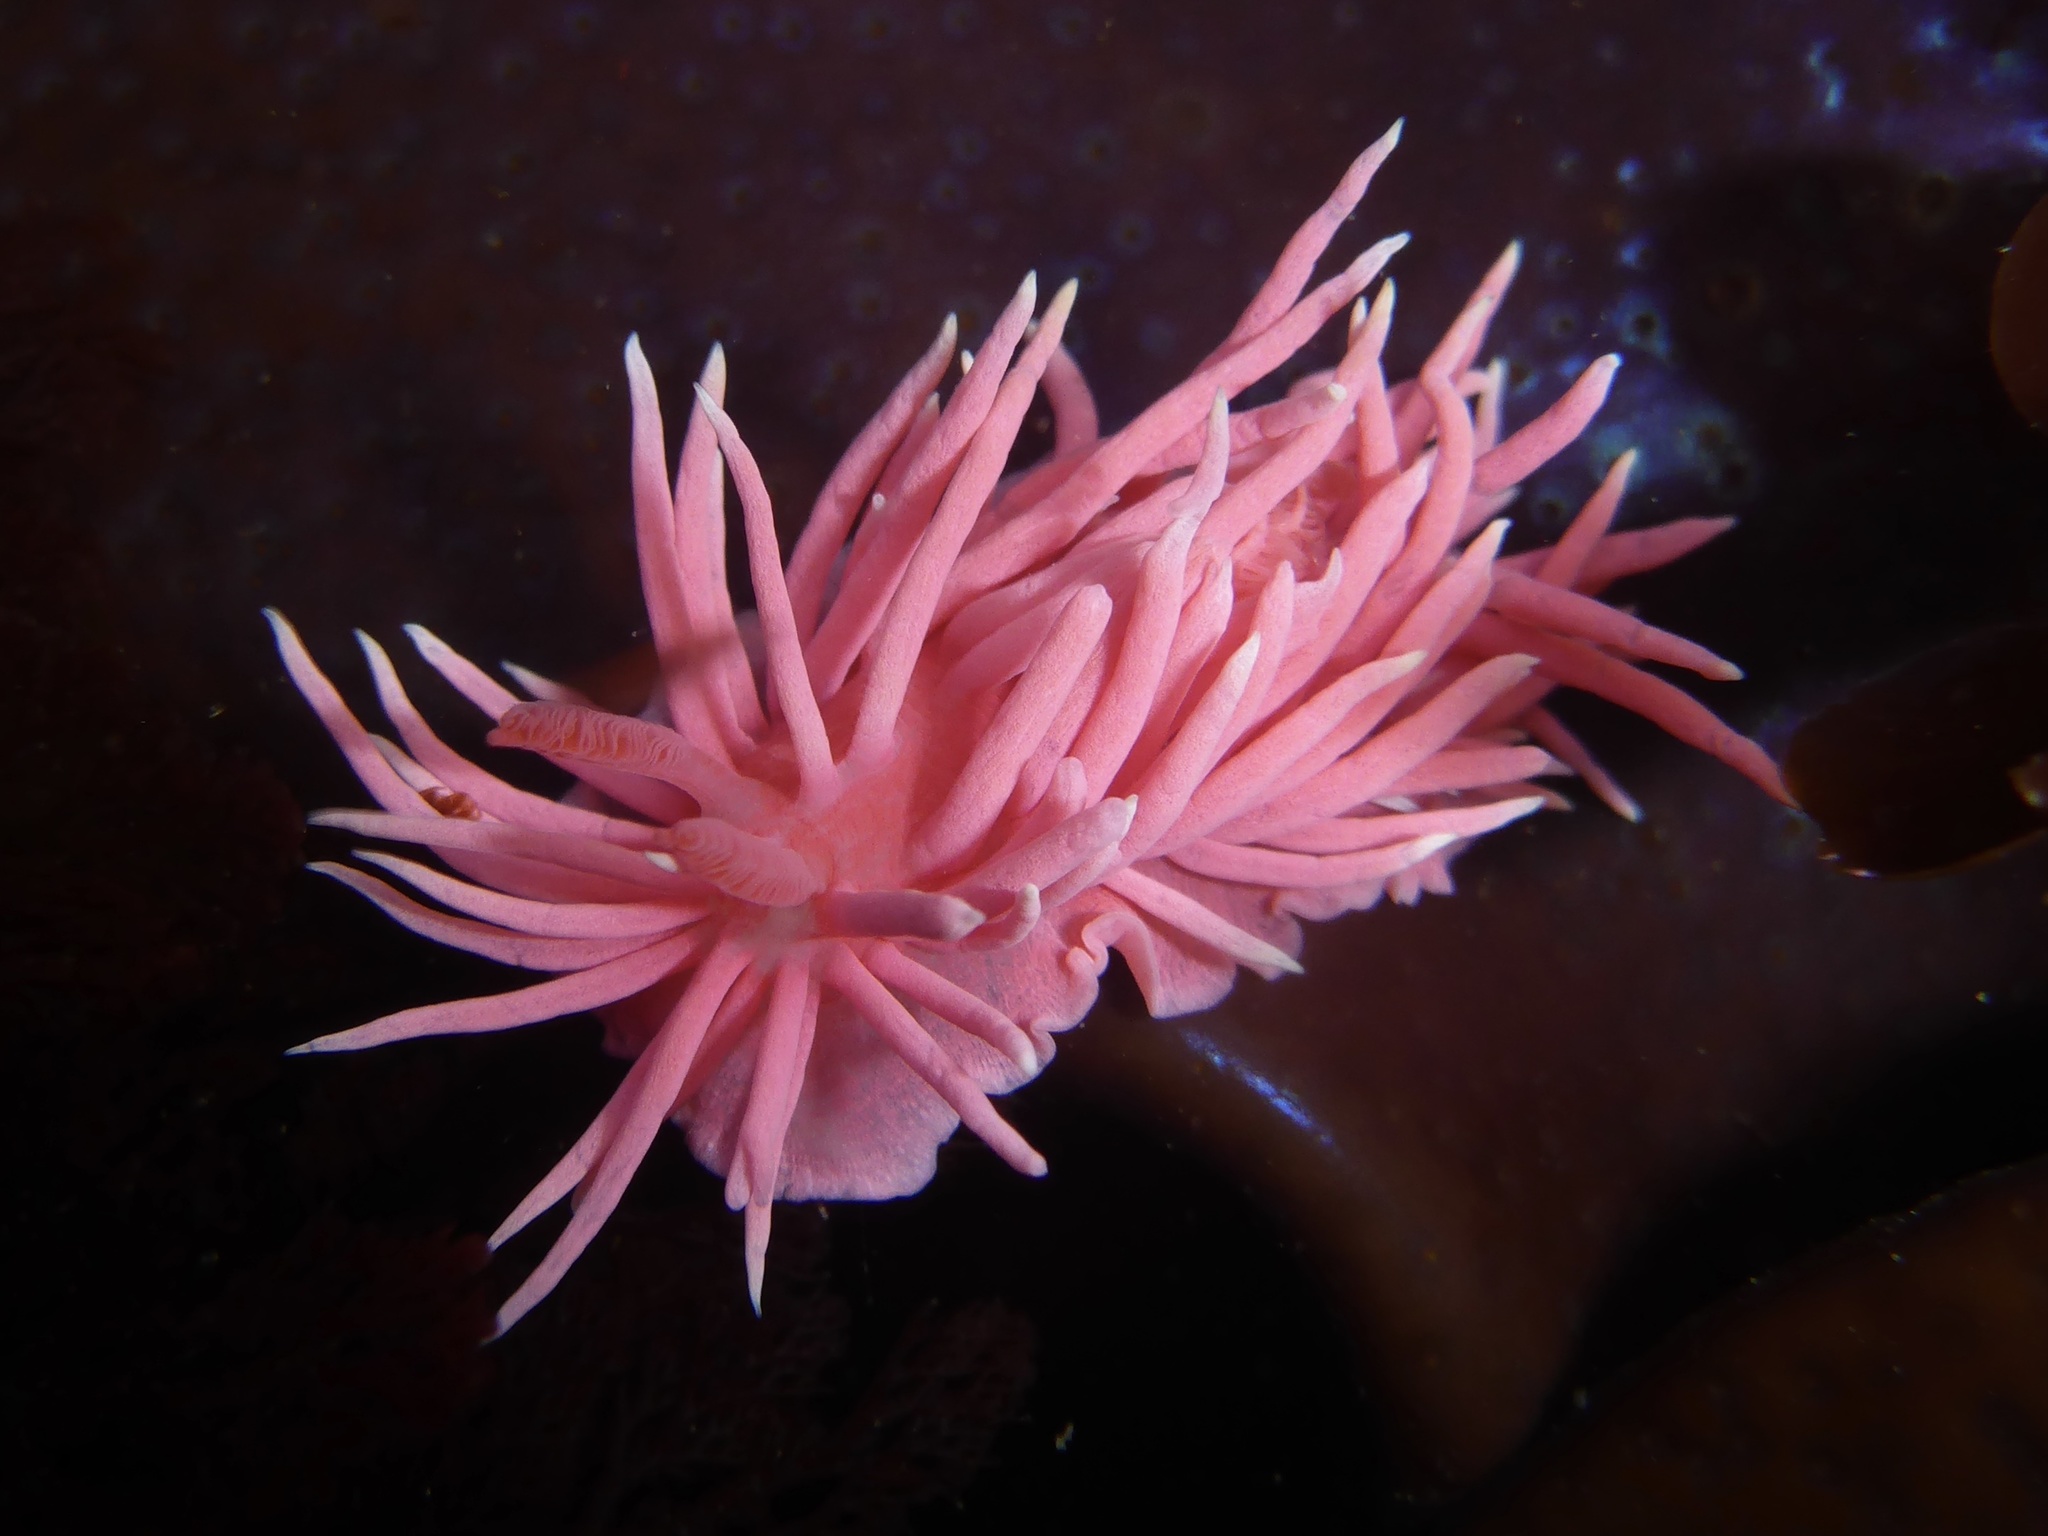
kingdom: Animalia
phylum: Mollusca
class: Gastropoda
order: Nudibranchia
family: Goniodorididae
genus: Okenia
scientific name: Okenia
